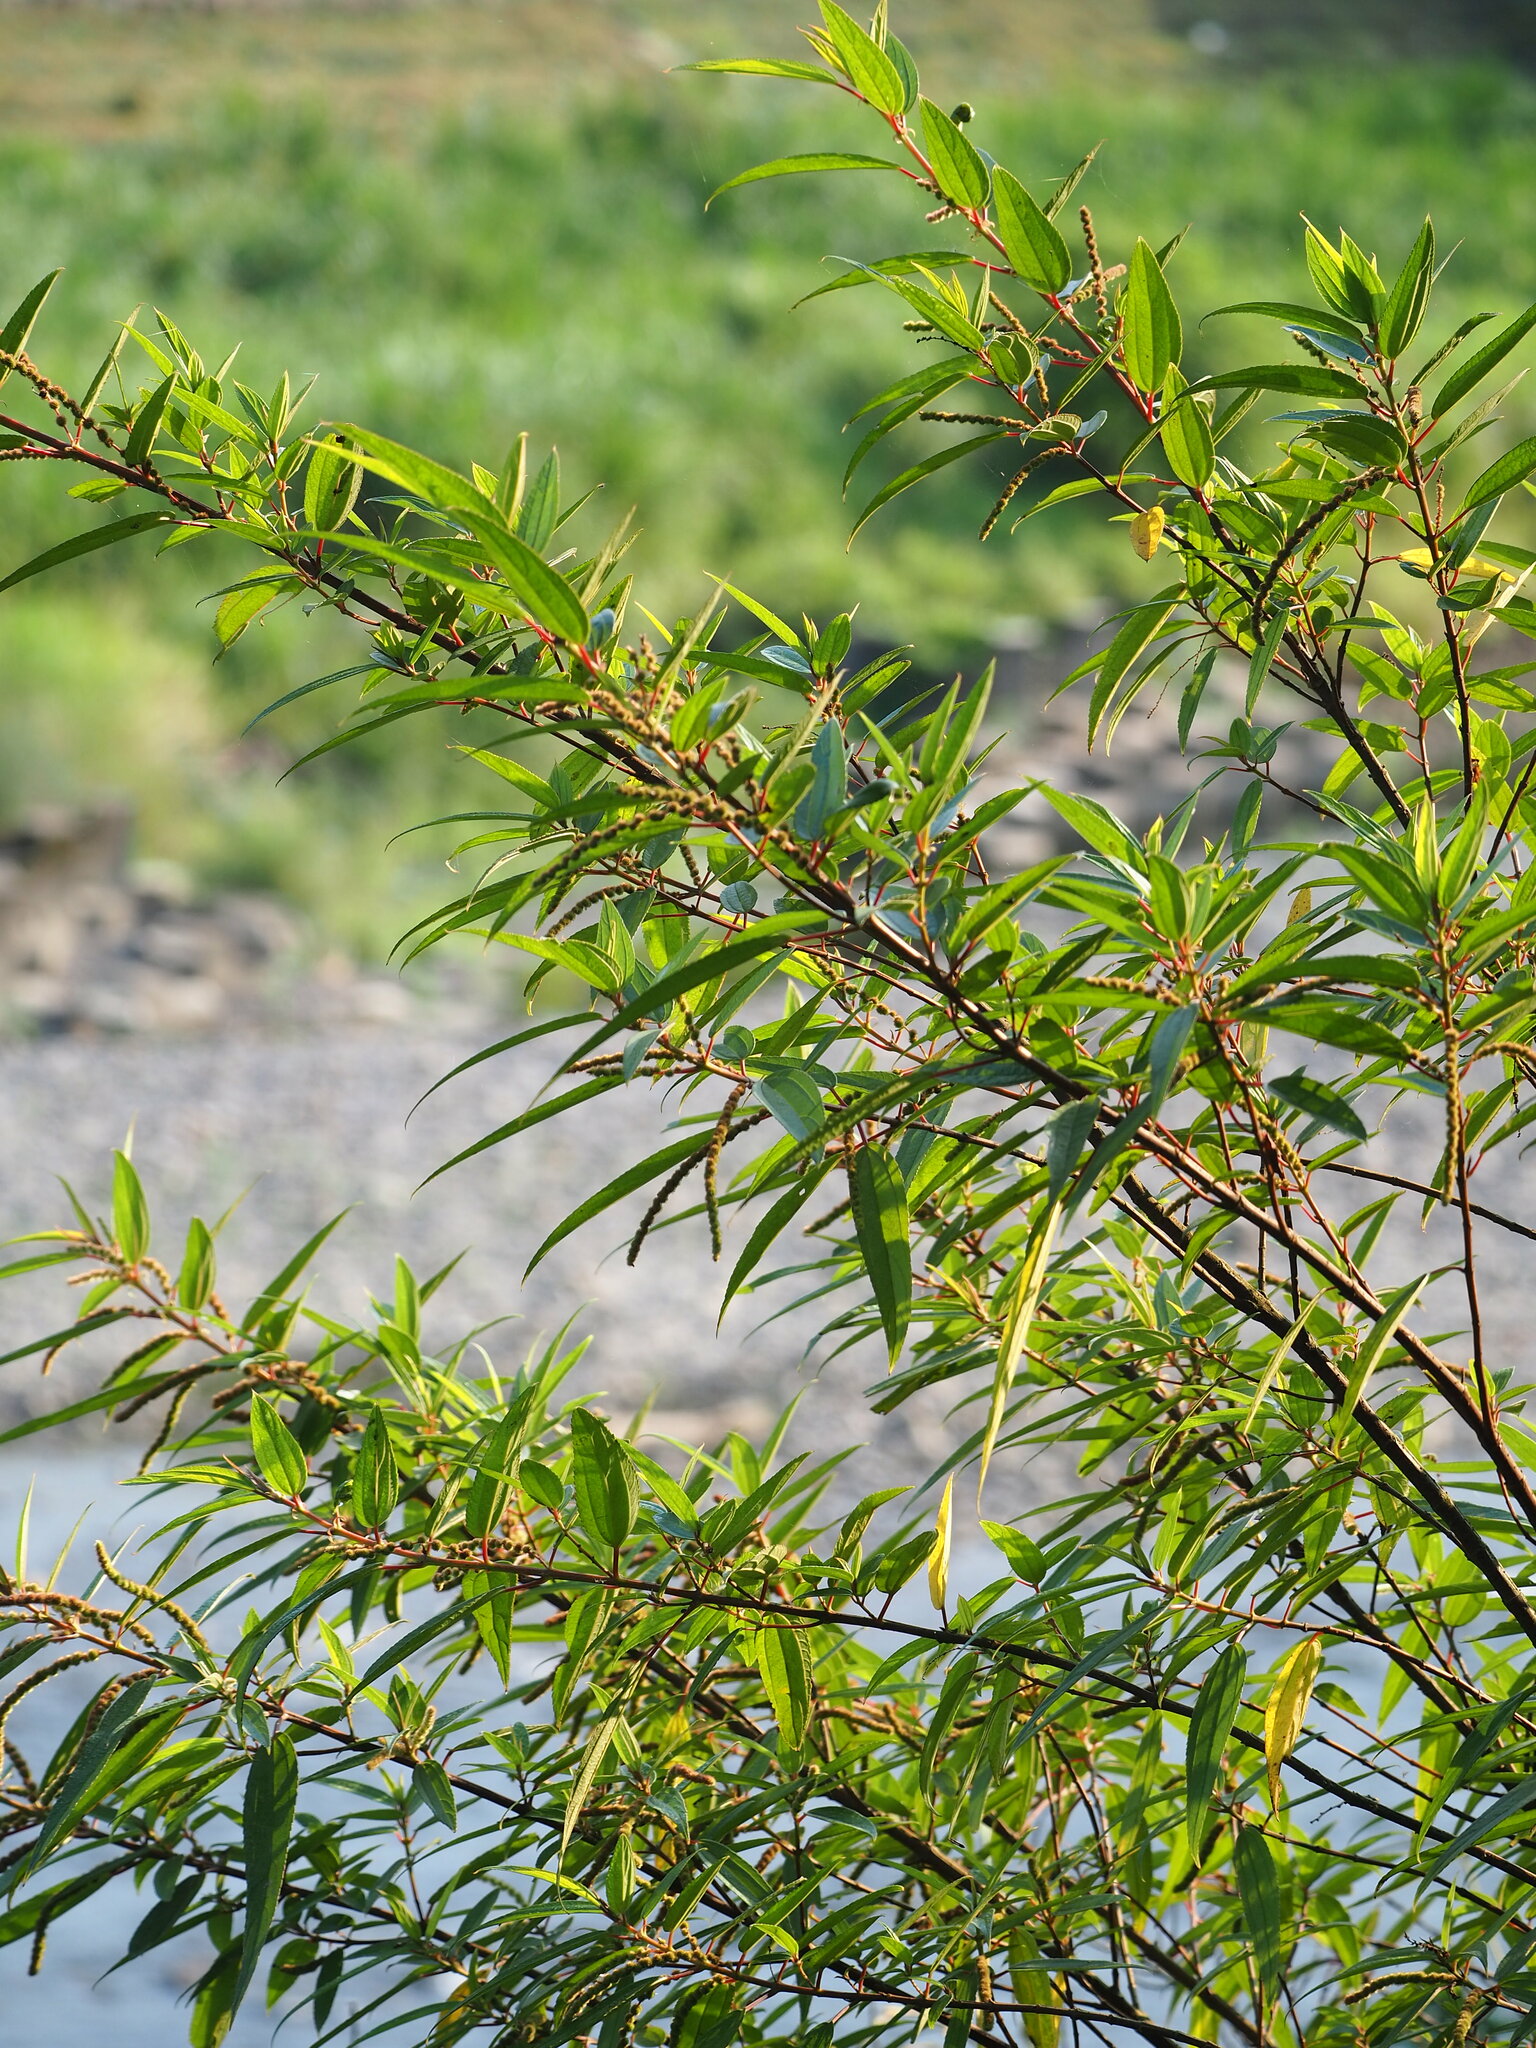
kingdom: Plantae
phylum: Tracheophyta
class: Magnoliopsida
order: Rosales
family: Urticaceae
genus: Boehmeria
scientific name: Boehmeria densiflora
